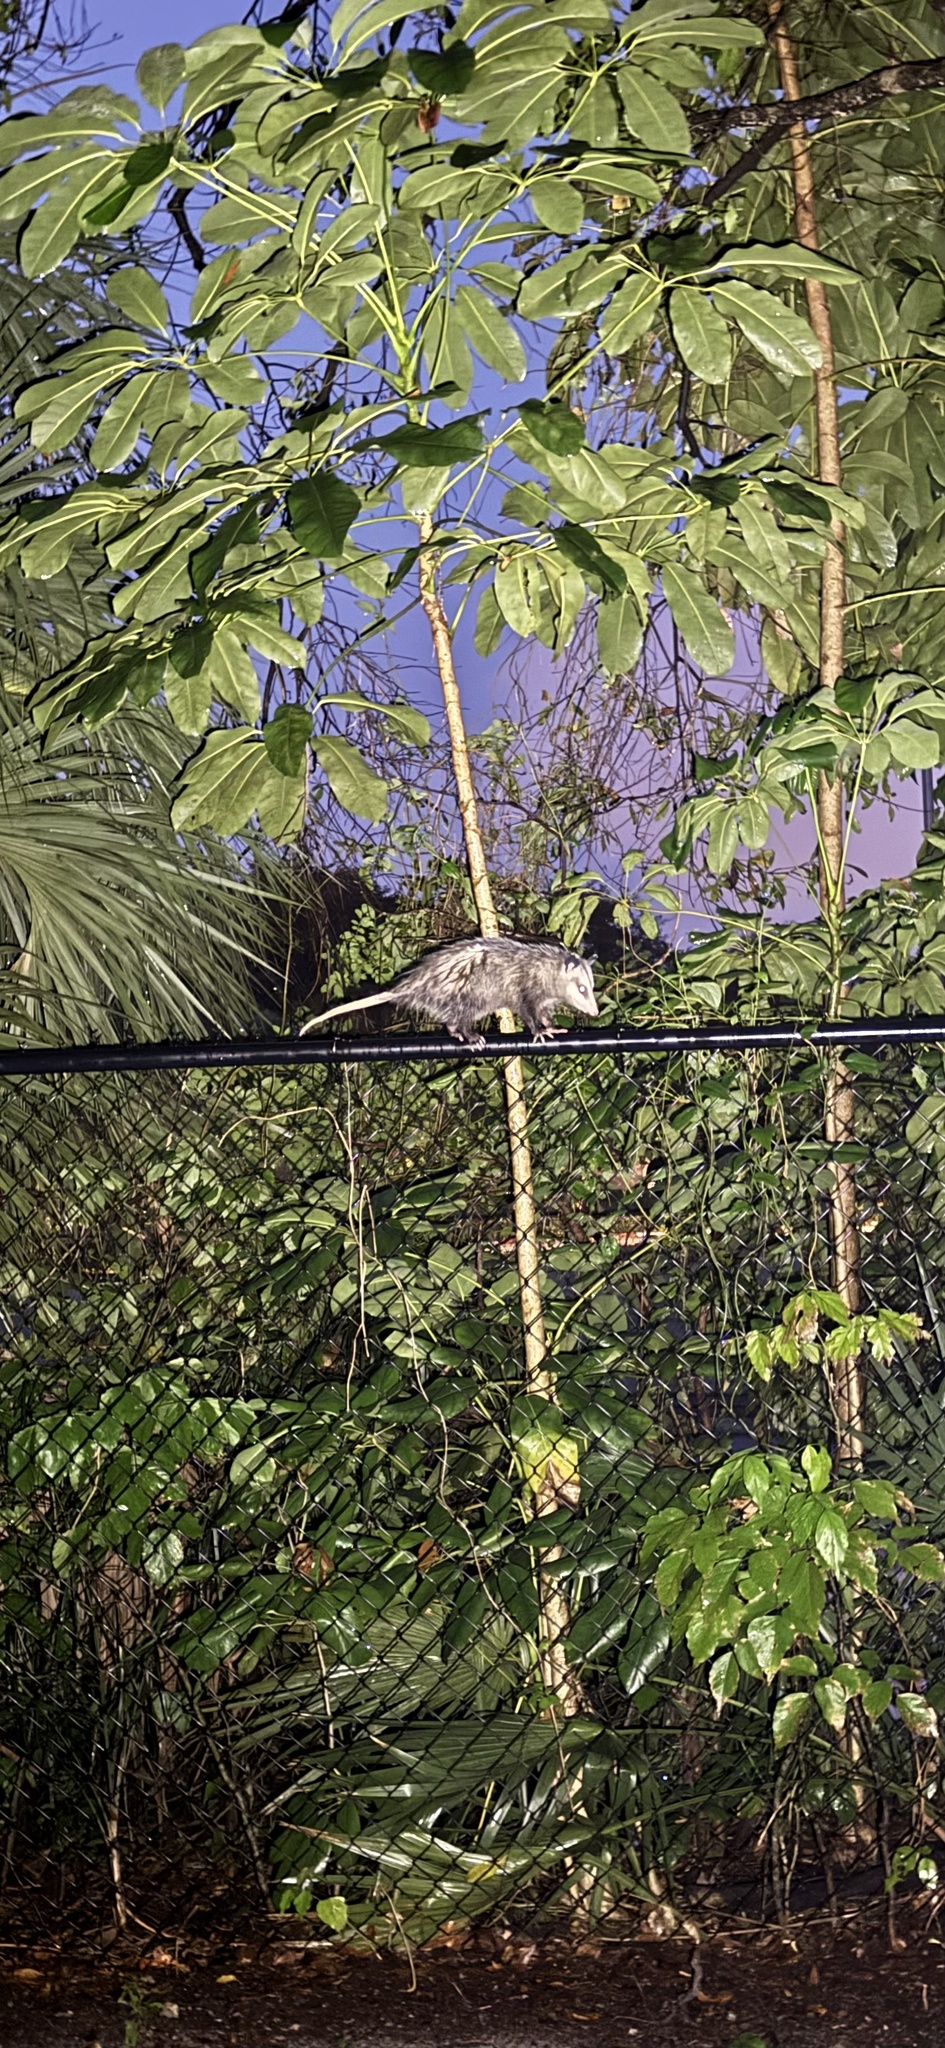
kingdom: Animalia
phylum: Chordata
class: Mammalia
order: Didelphimorphia
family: Didelphidae
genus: Didelphis
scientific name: Didelphis virginiana
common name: Virginia opossum
